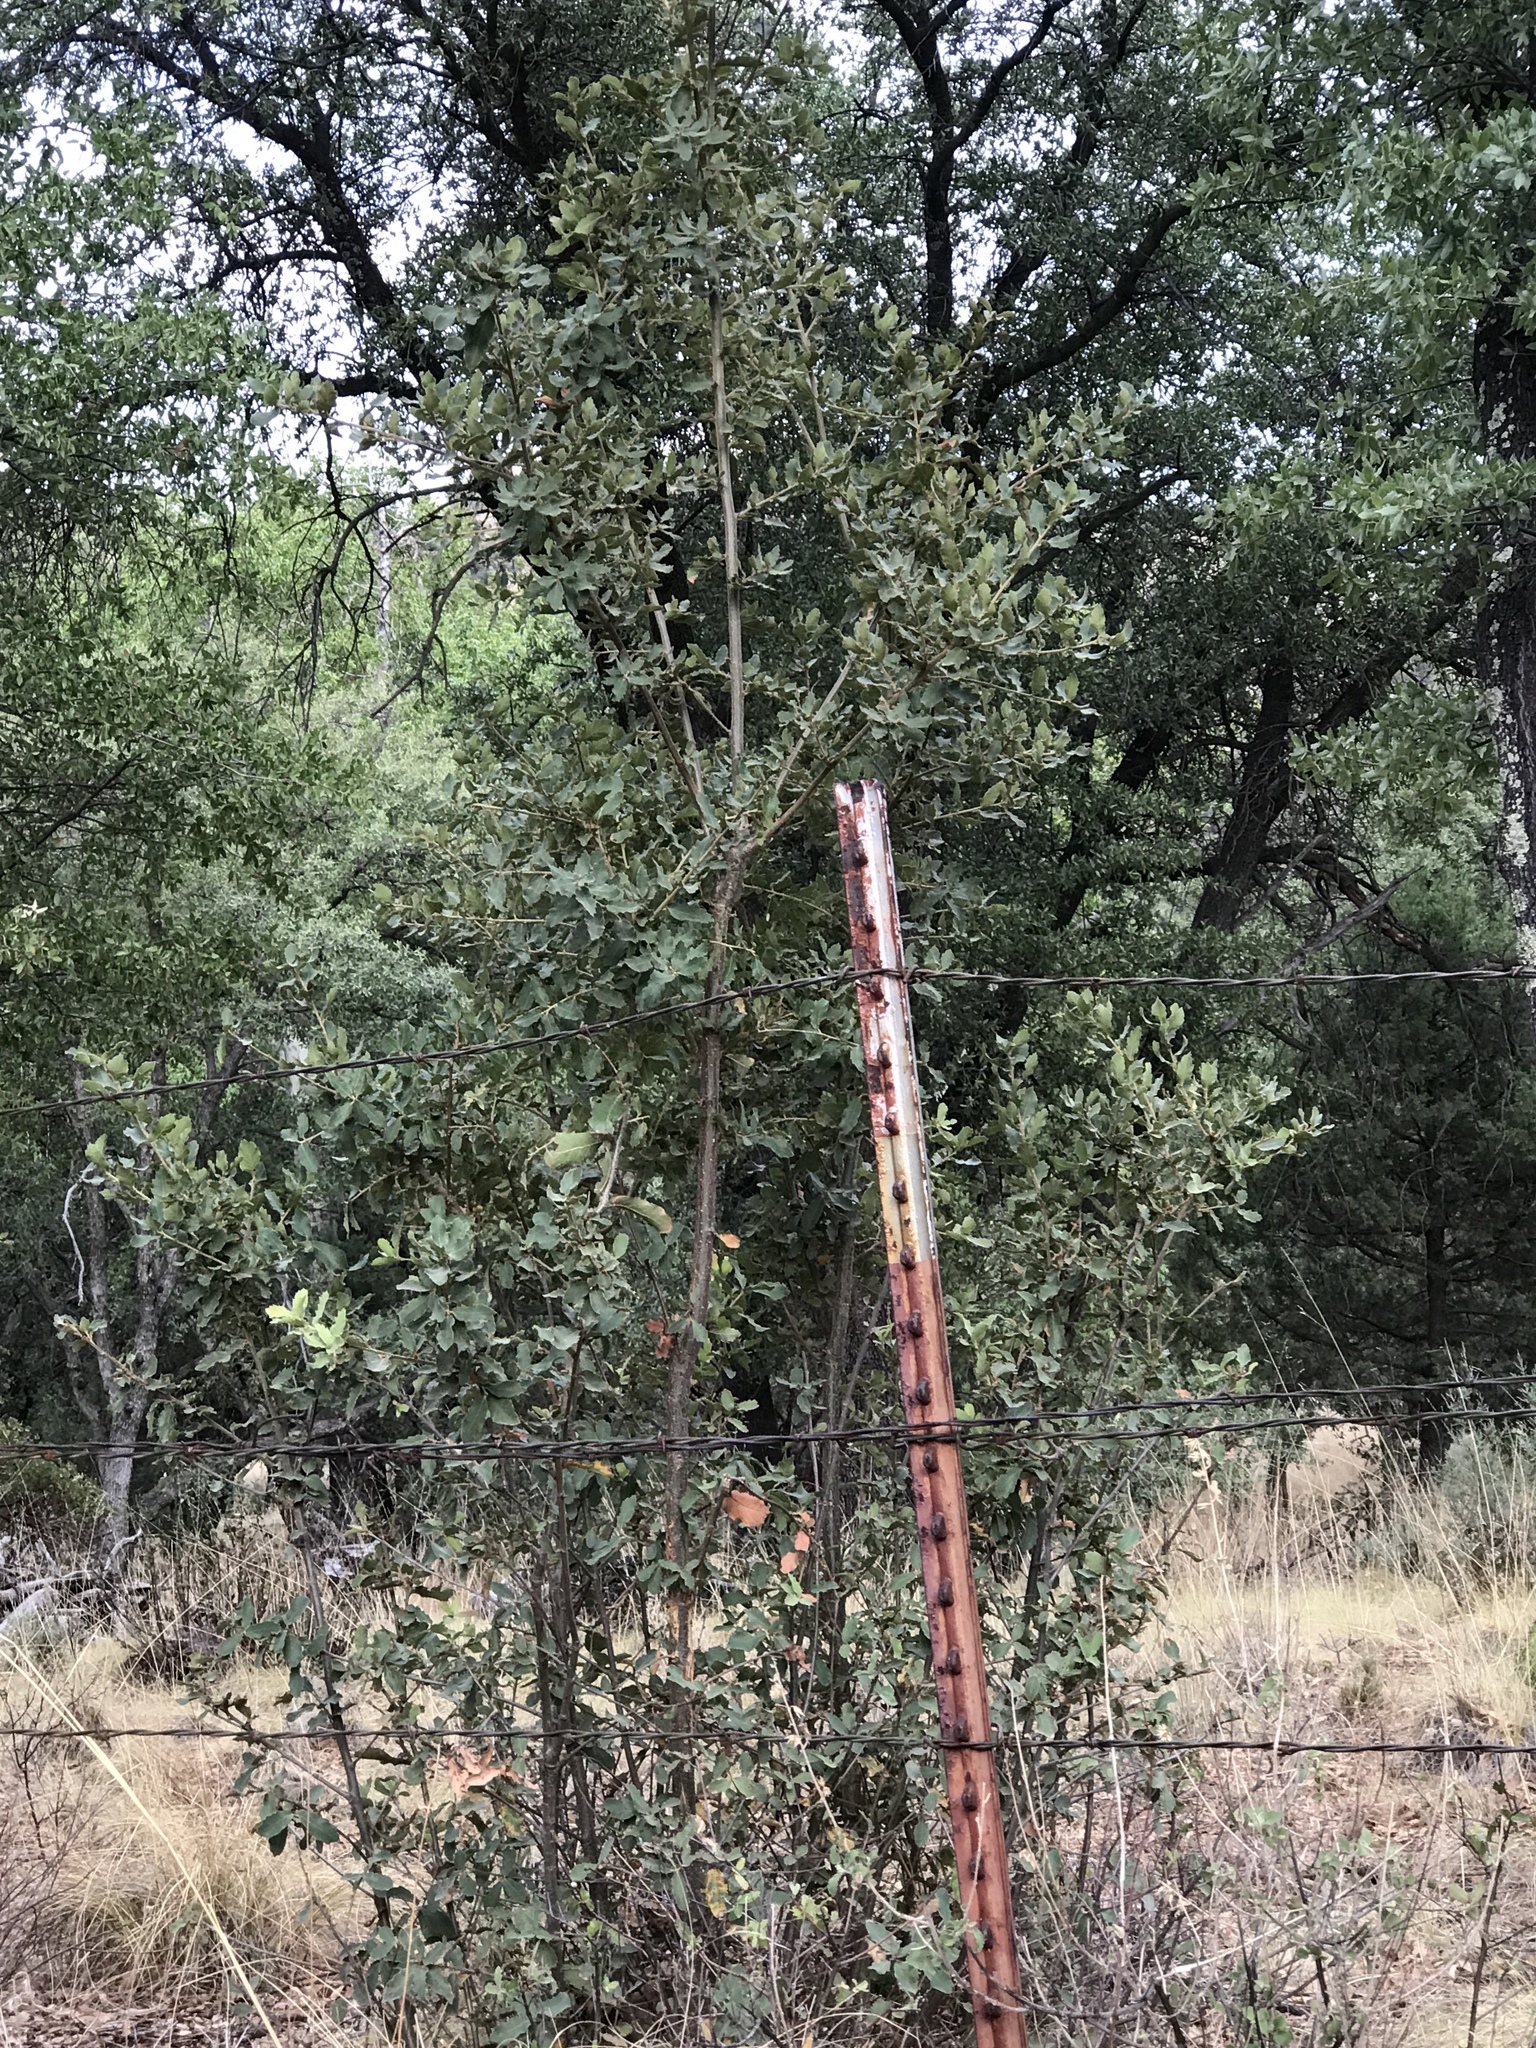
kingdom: Plantae
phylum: Tracheophyta
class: Magnoliopsida
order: Fagales
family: Fagaceae
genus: Quercus
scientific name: Quercus grisea
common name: Gray oak
